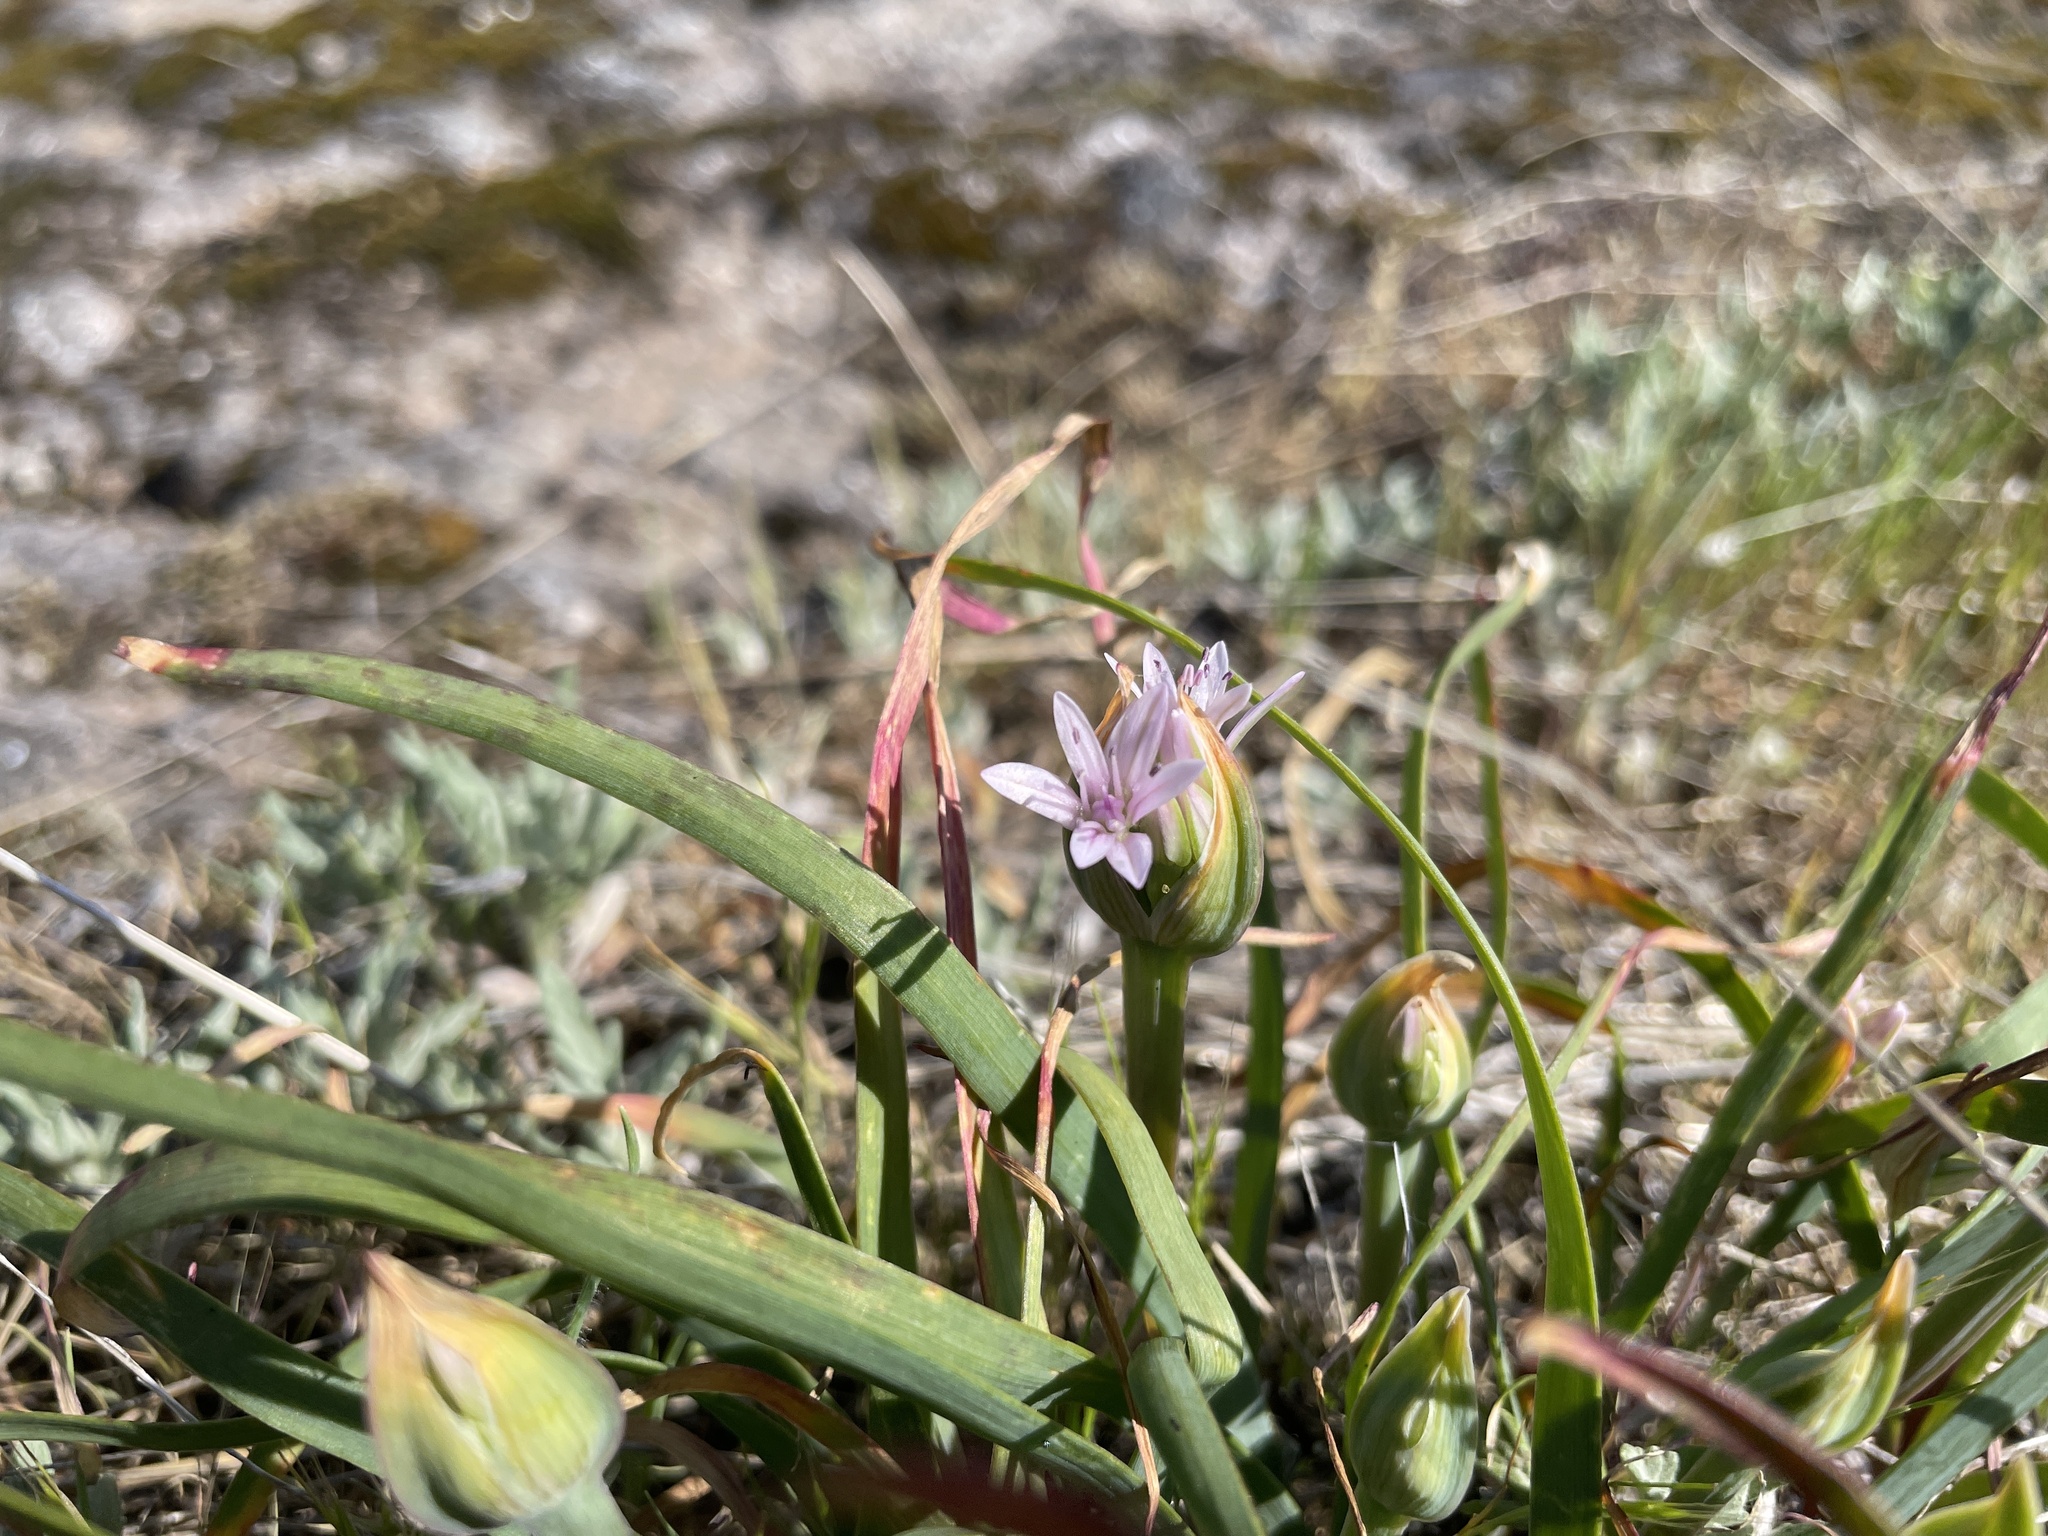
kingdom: Plantae
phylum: Tracheophyta
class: Liliopsida
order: Asparagales
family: Amaryllidaceae
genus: Allium
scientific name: Allium crenulatum
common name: Olympic onion
